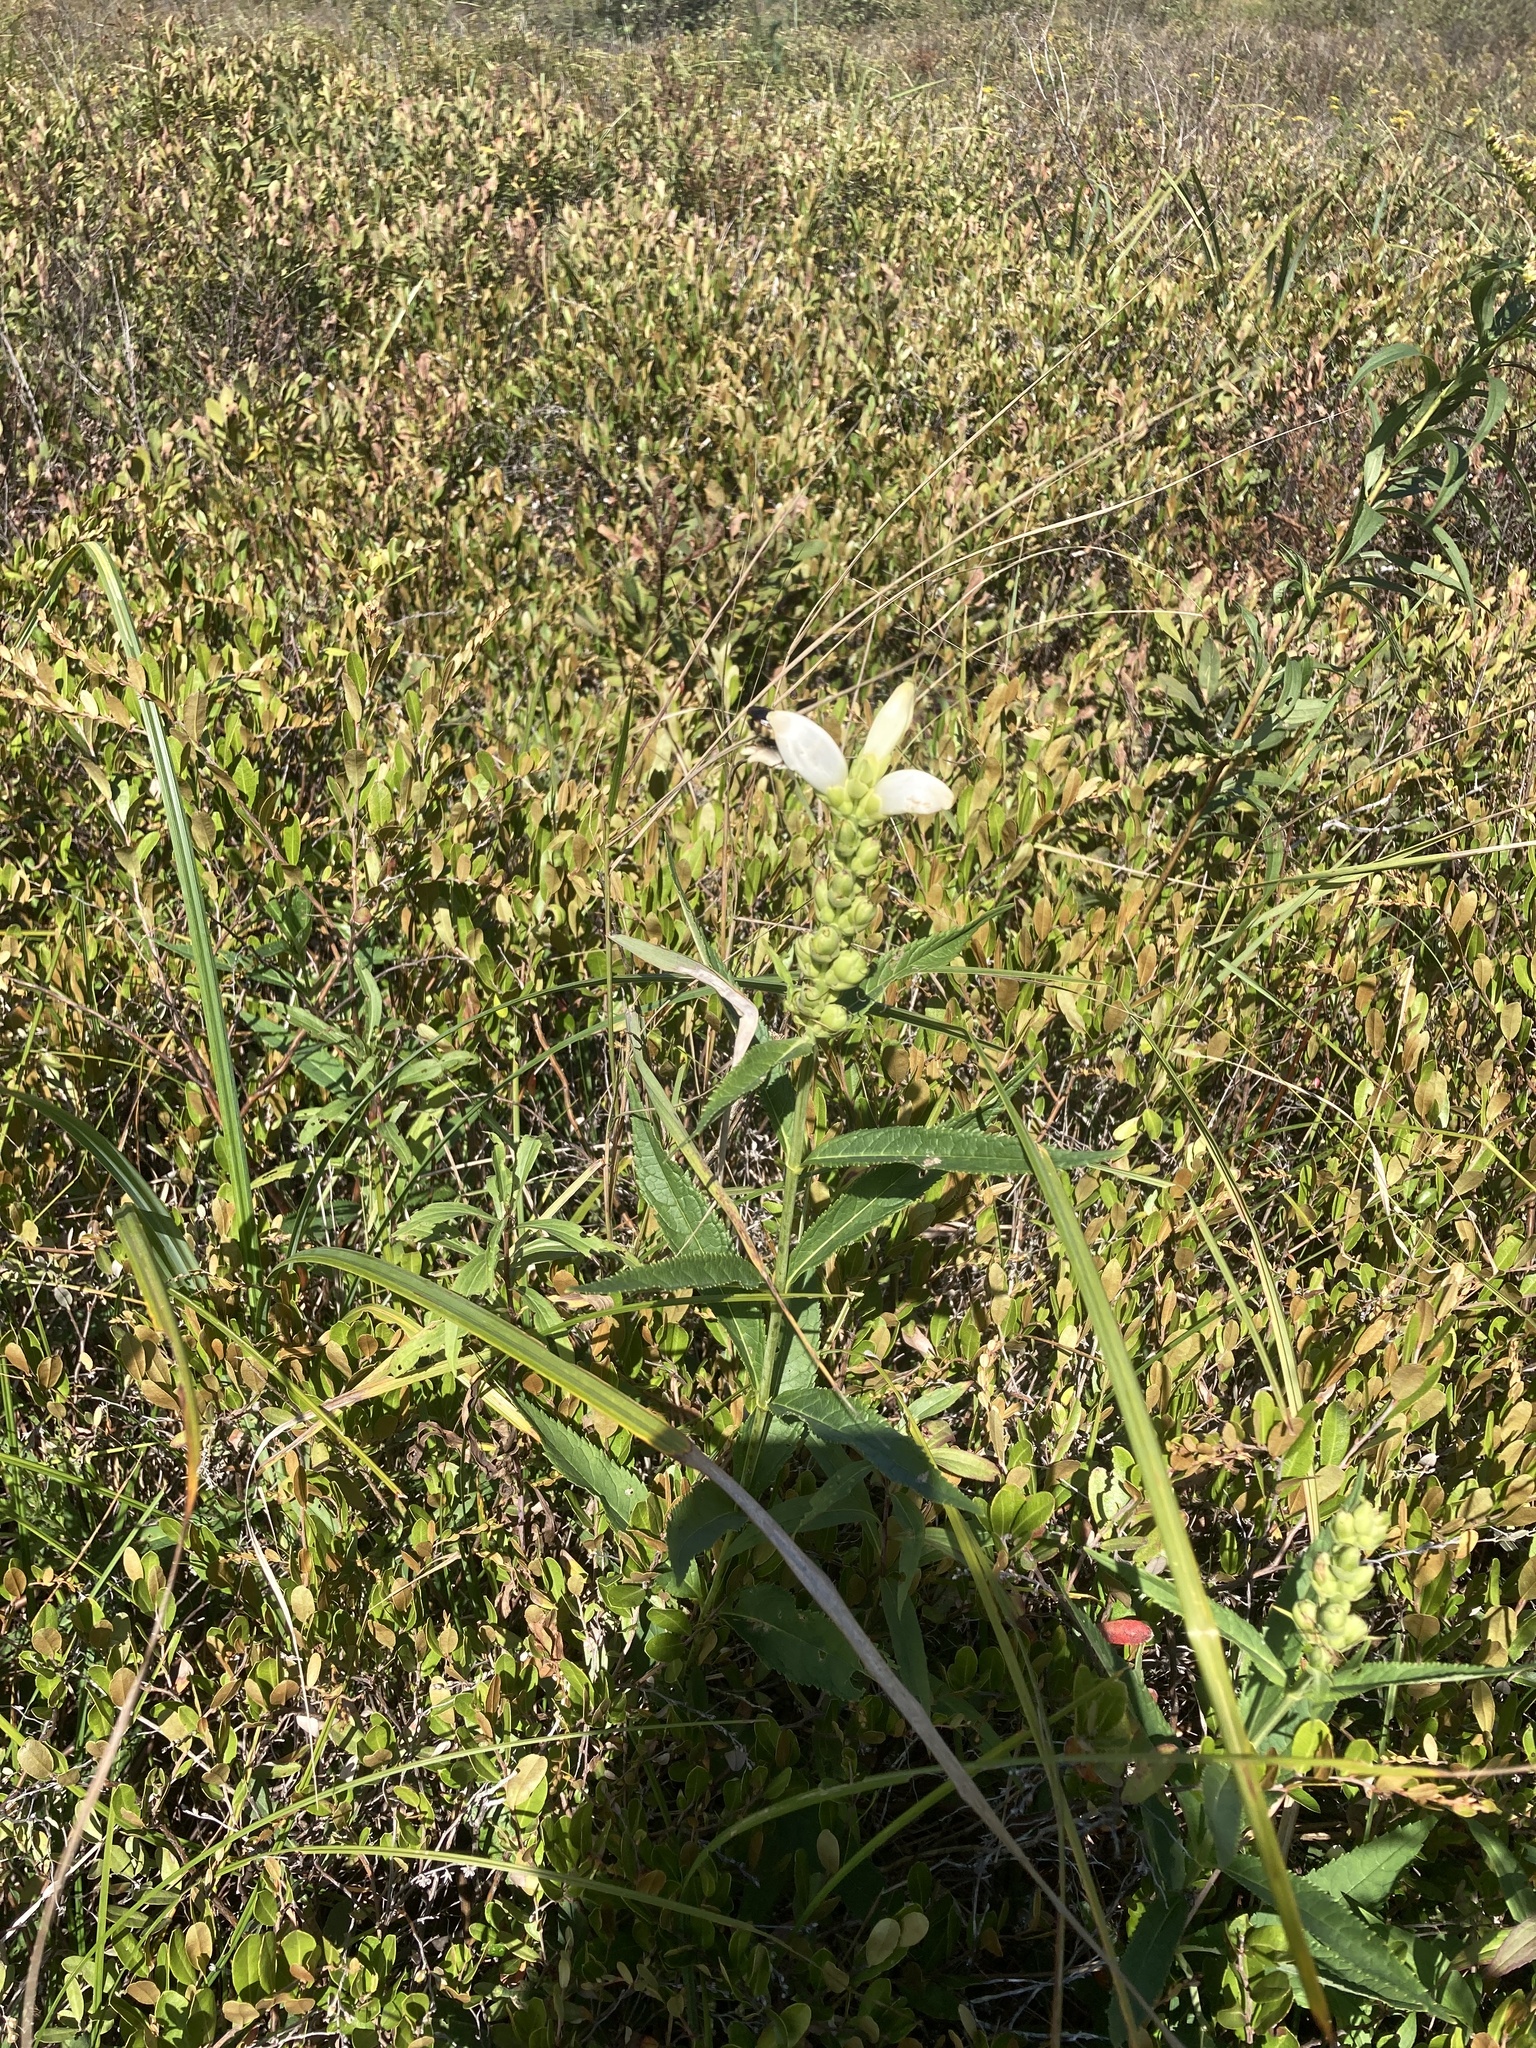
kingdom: Plantae
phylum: Tracheophyta
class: Magnoliopsida
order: Lamiales
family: Plantaginaceae
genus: Chelone
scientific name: Chelone glabra
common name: Snakehead
